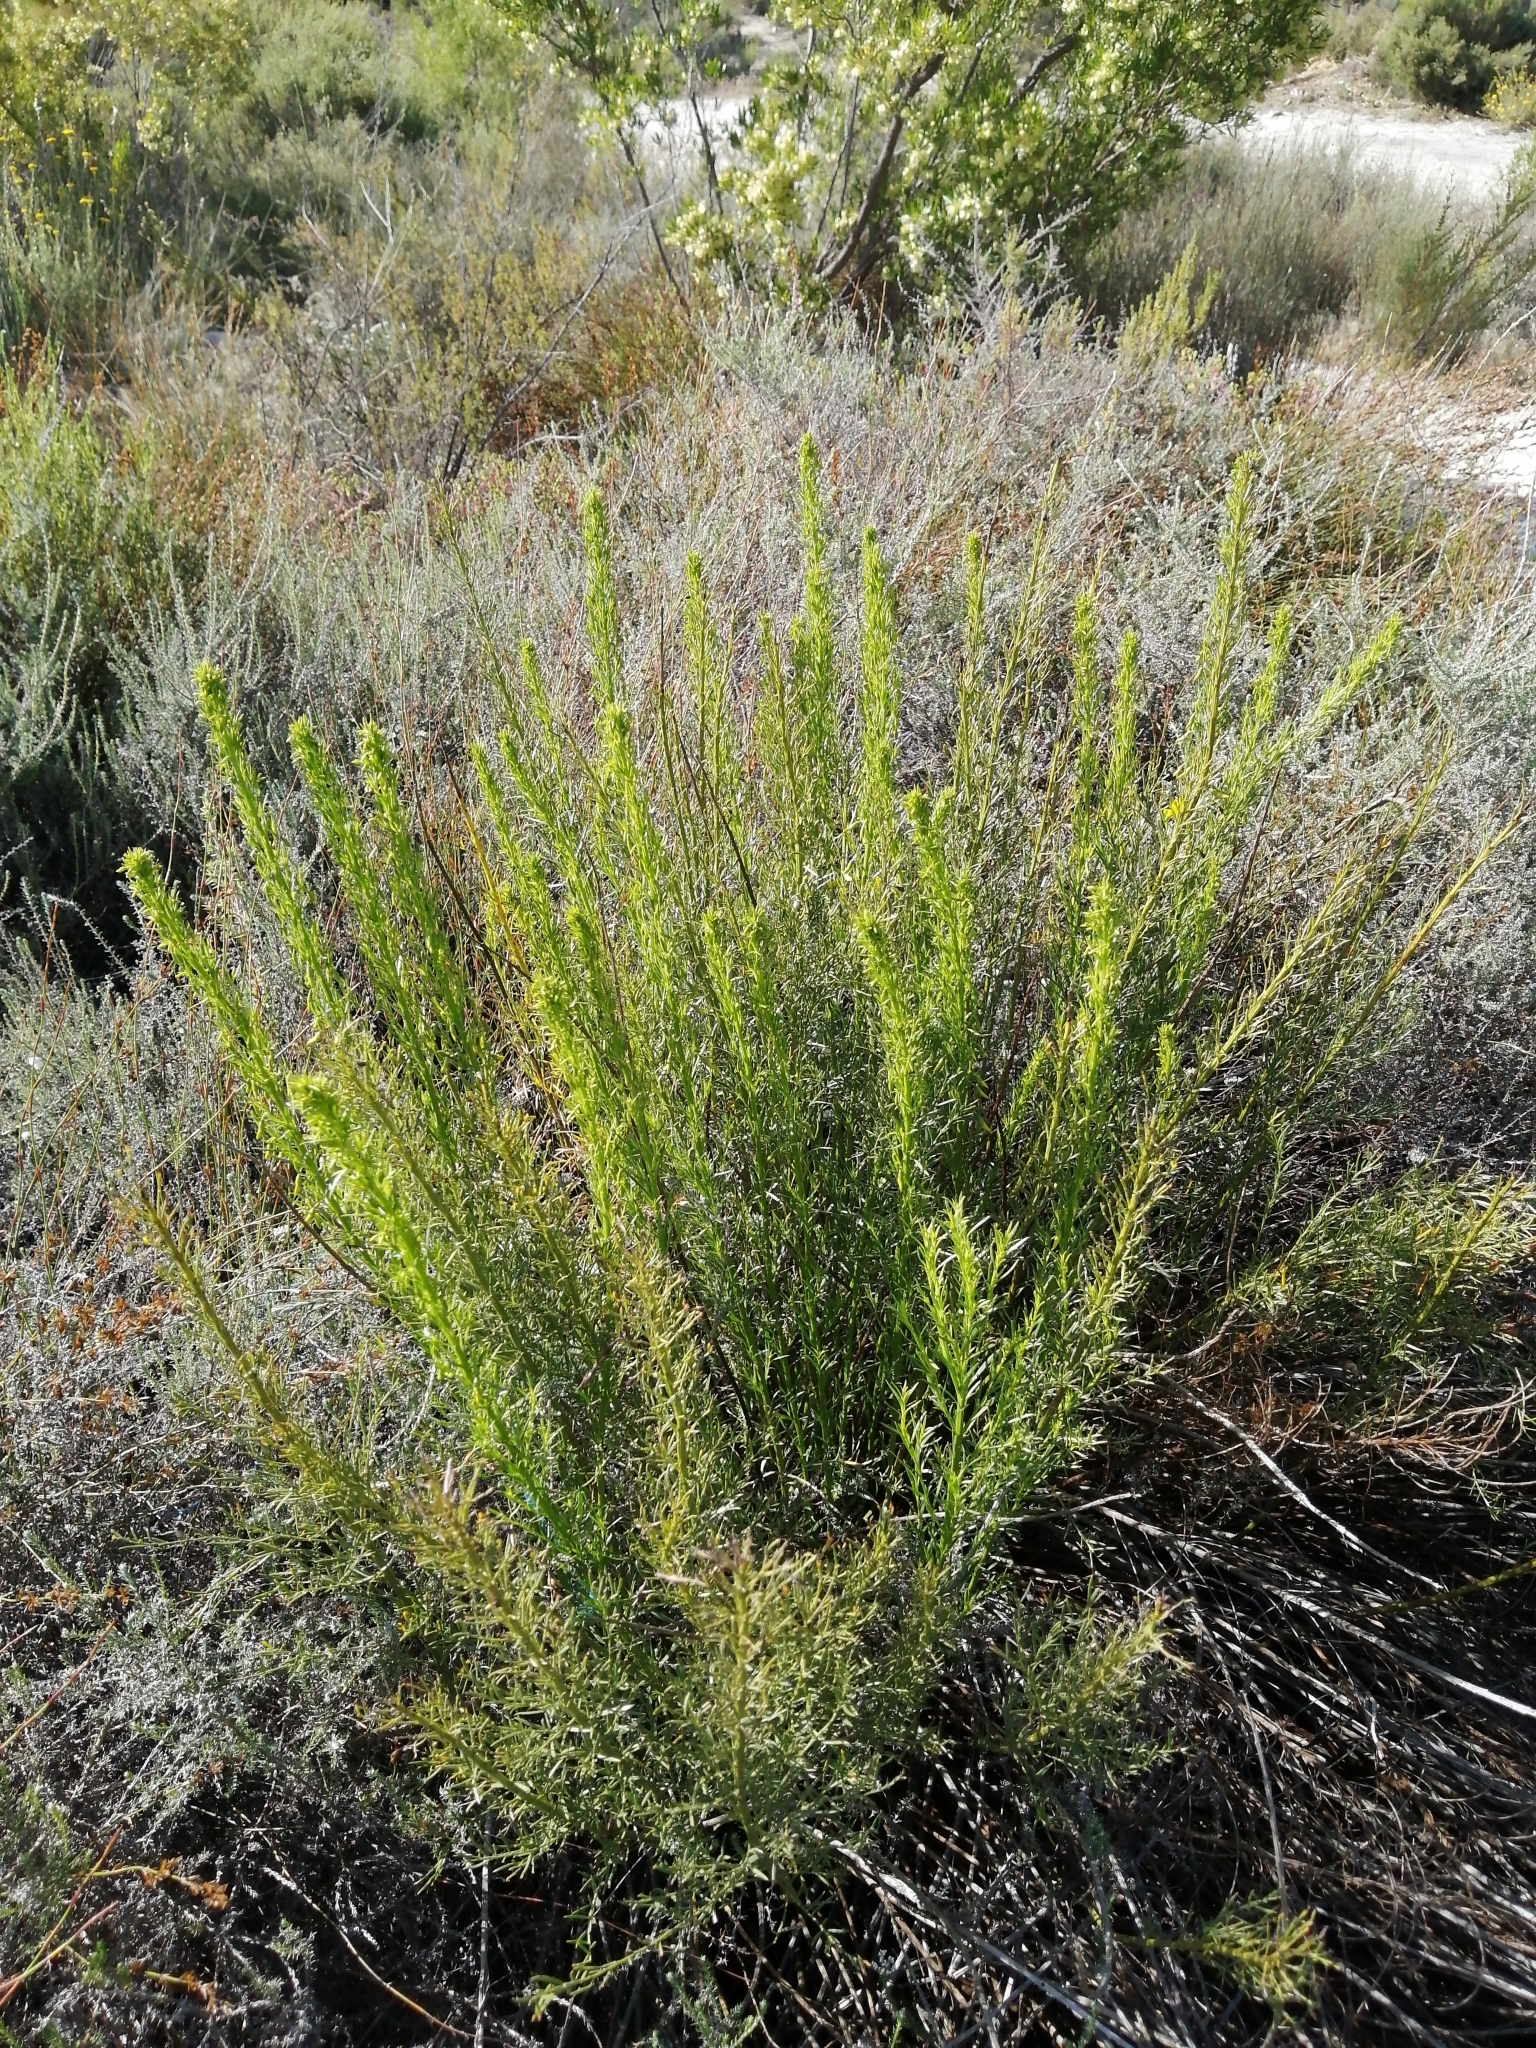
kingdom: Plantae
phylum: Tracheophyta
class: Magnoliopsida
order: Fabales
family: Fabaceae
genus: Rafnia
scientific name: Rafnia angulata
